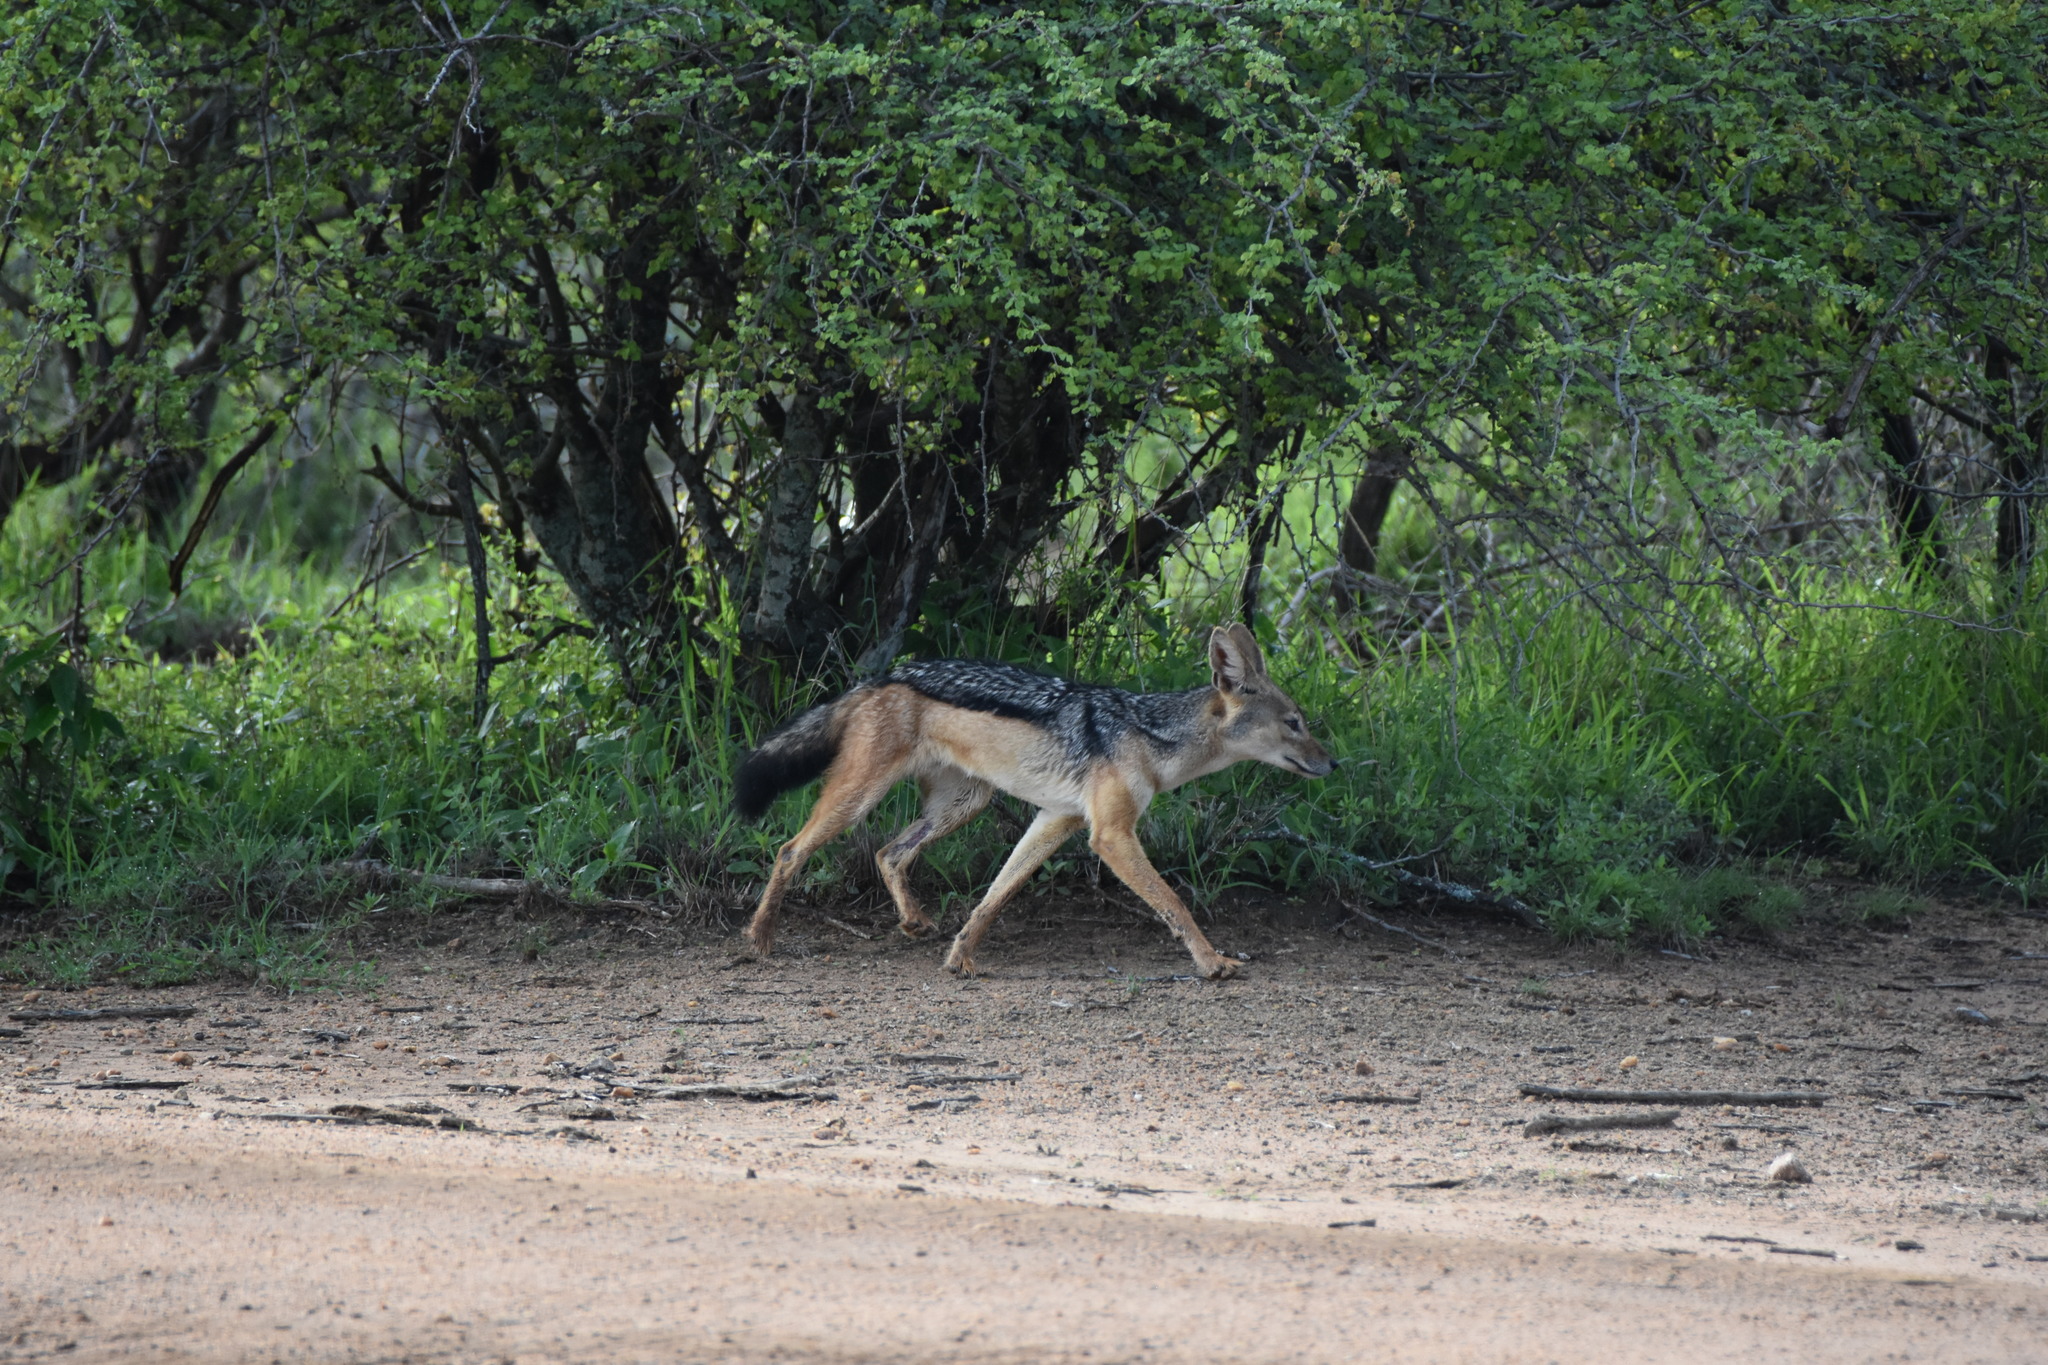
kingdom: Animalia
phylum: Chordata
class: Mammalia
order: Carnivora
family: Canidae
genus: Lupulella
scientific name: Lupulella
